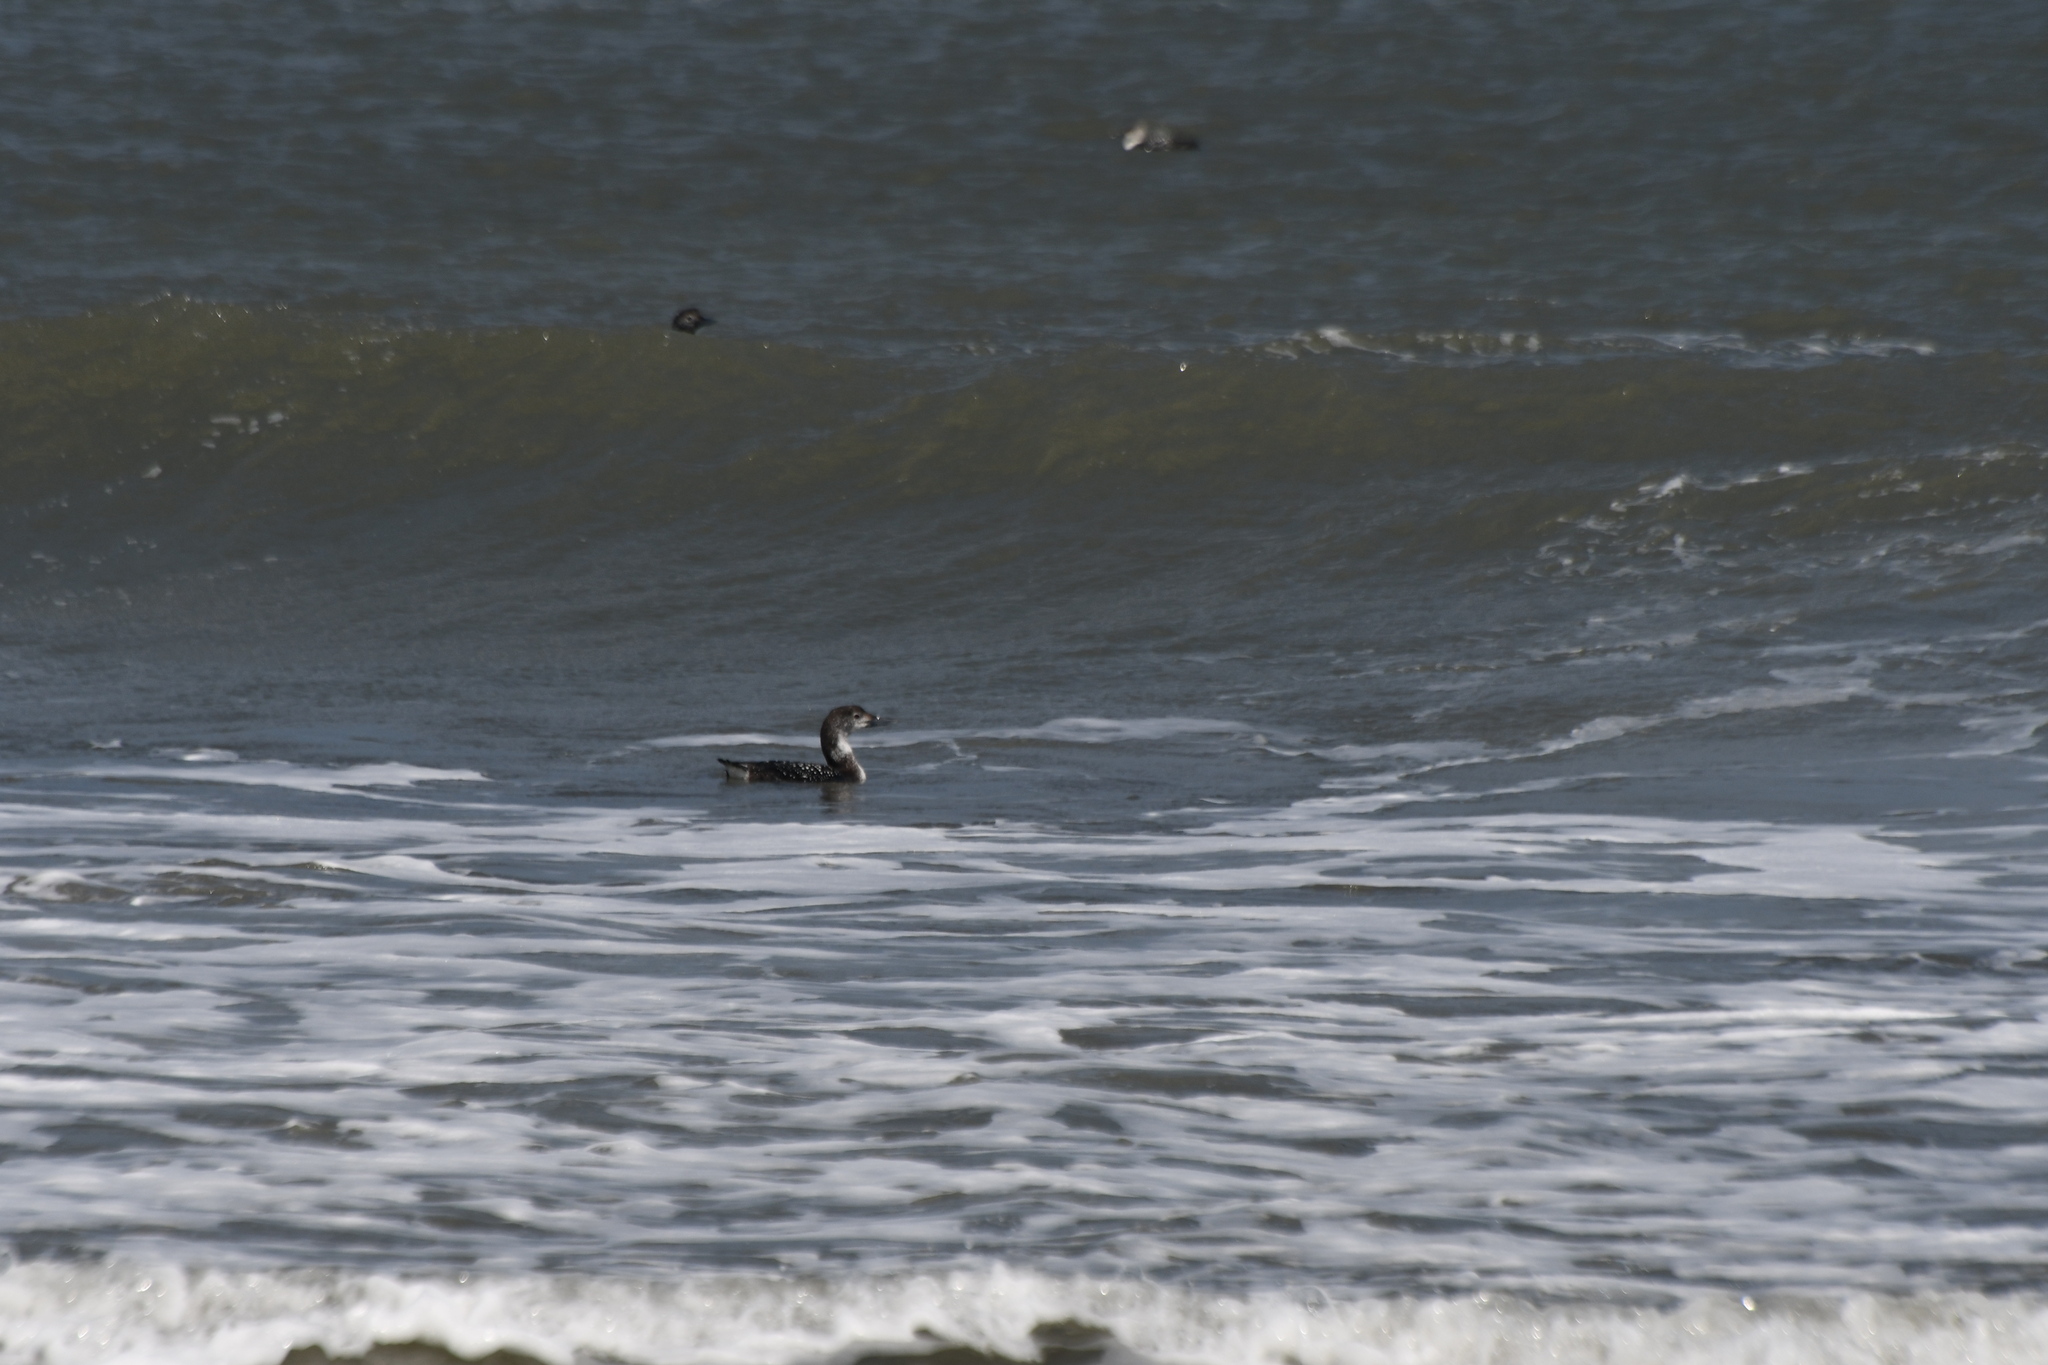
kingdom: Animalia
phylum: Chordata
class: Aves
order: Gaviiformes
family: Gaviidae
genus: Gavia
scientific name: Gavia immer
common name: Common loon
